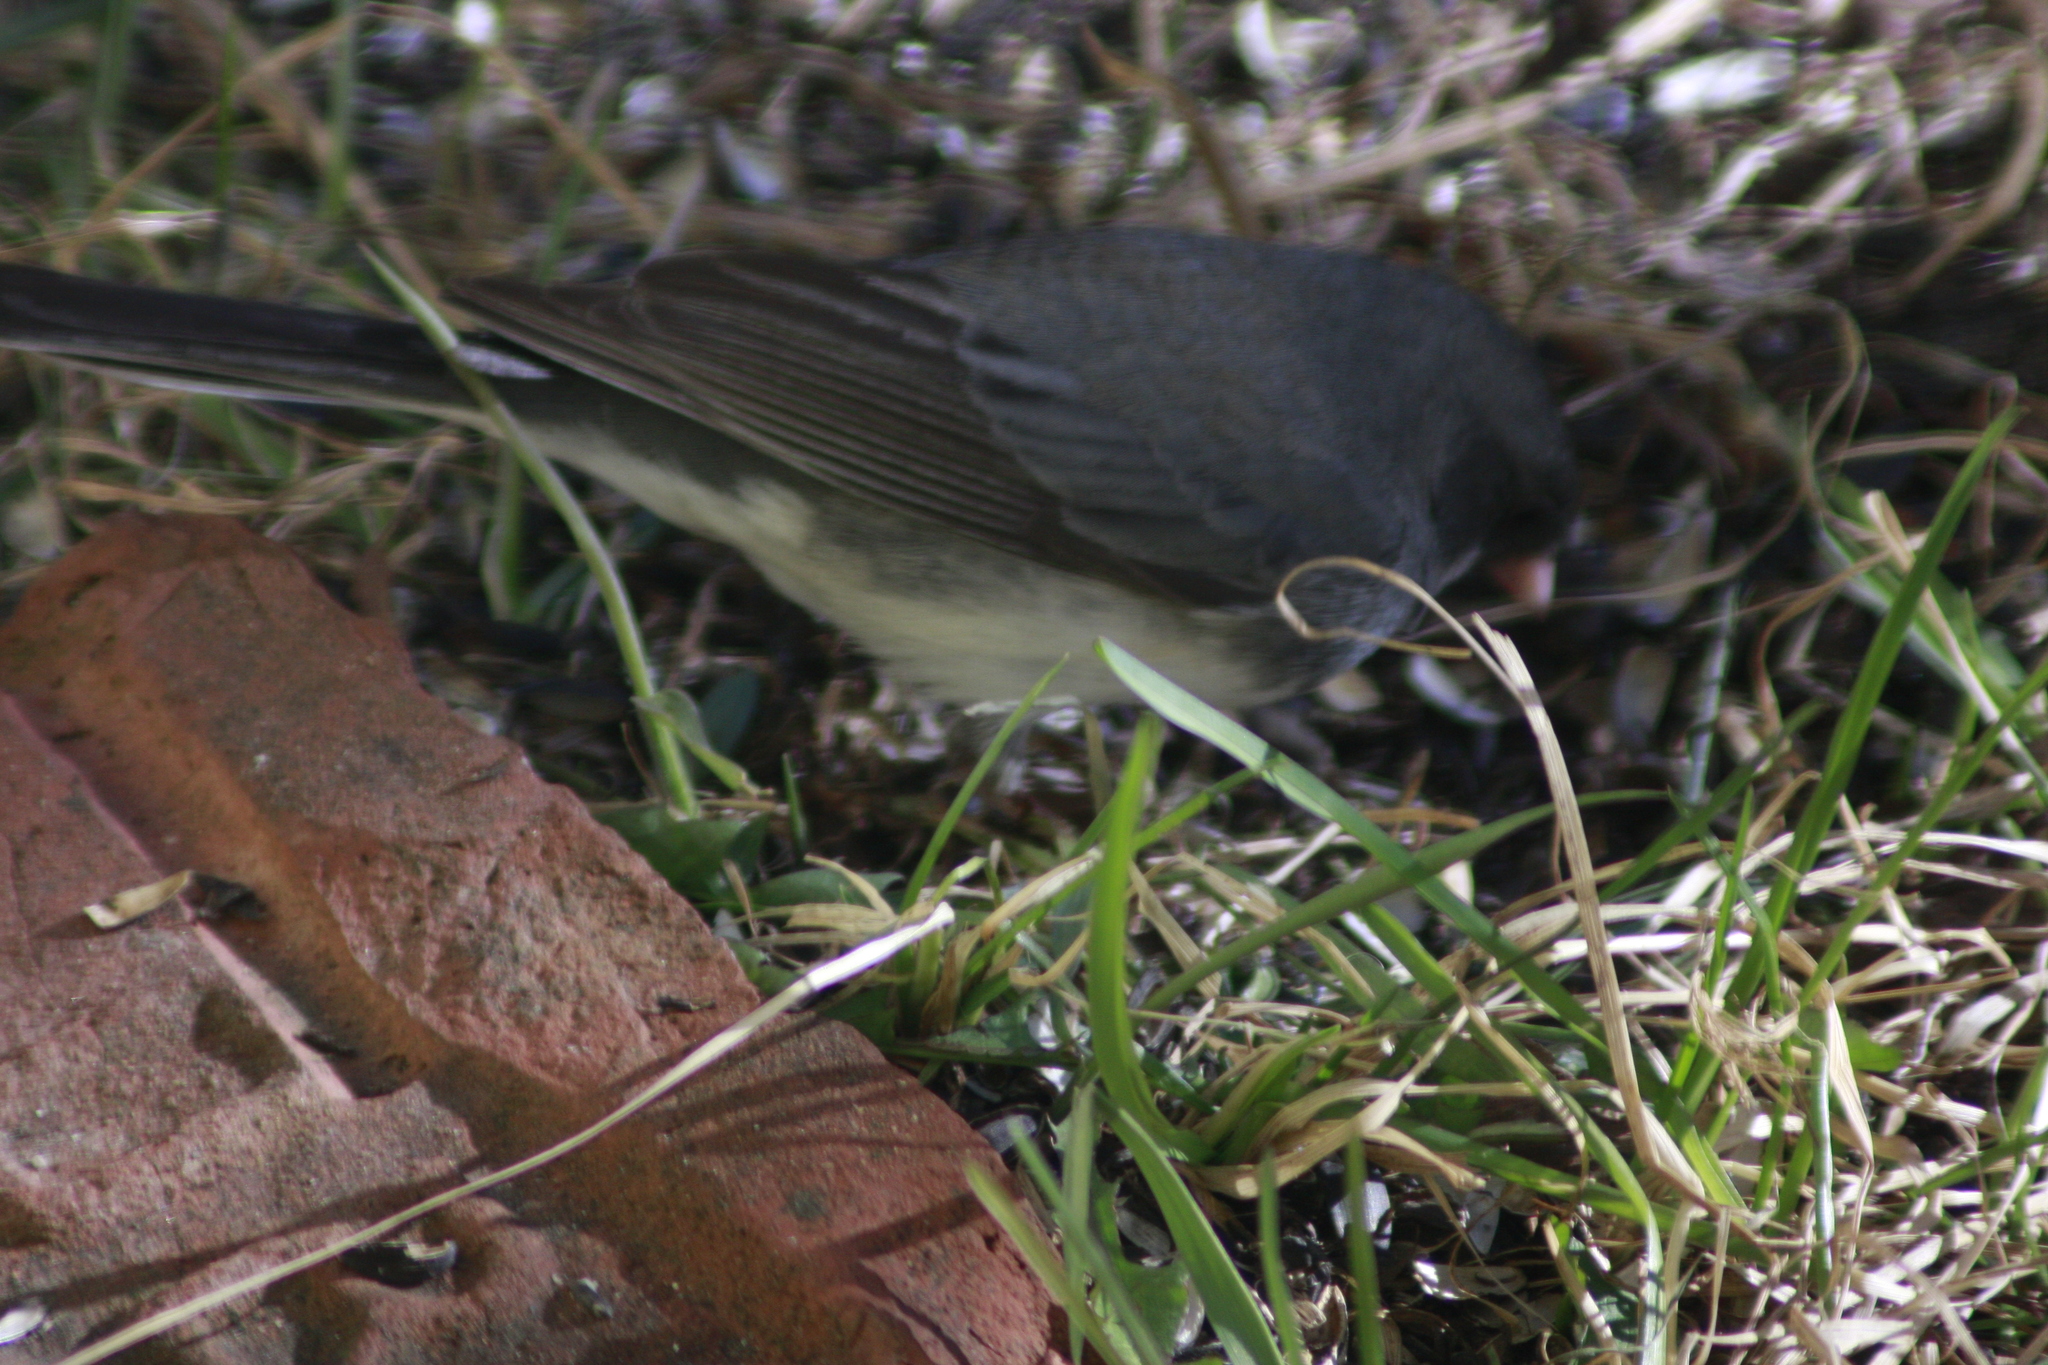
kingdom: Animalia
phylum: Chordata
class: Aves
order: Passeriformes
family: Passerellidae
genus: Junco
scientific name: Junco hyemalis
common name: Dark-eyed junco
